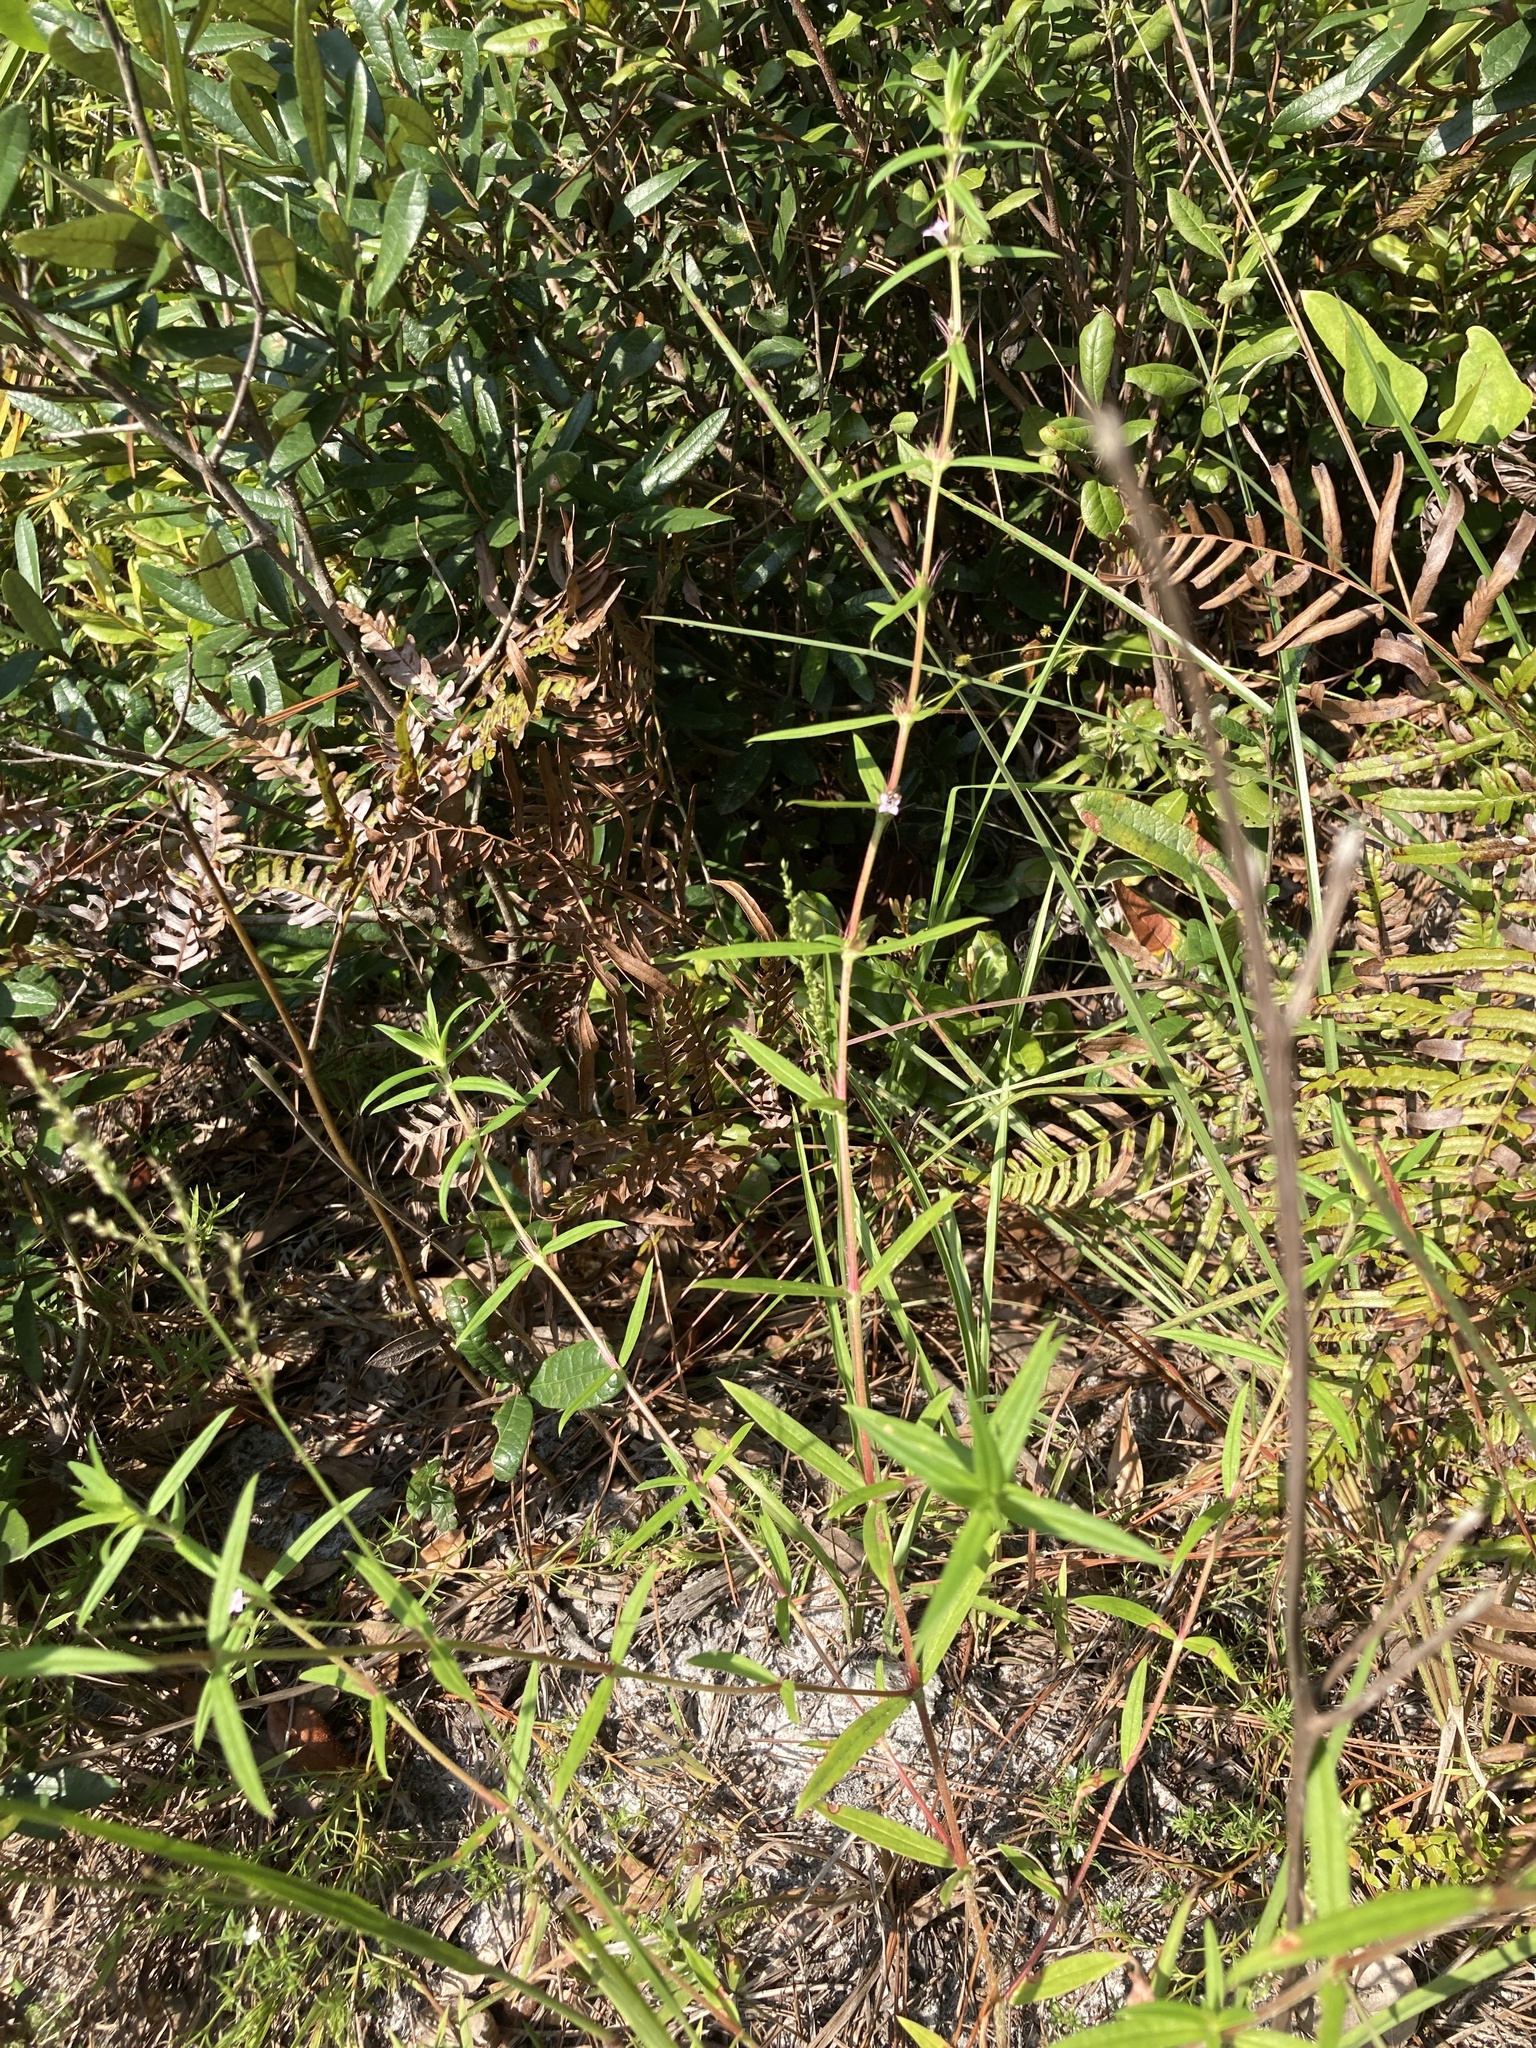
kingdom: Plantae
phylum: Tracheophyta
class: Magnoliopsida
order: Gentianales
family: Rubiaceae
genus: Hexasepalum
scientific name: Hexasepalum teres
